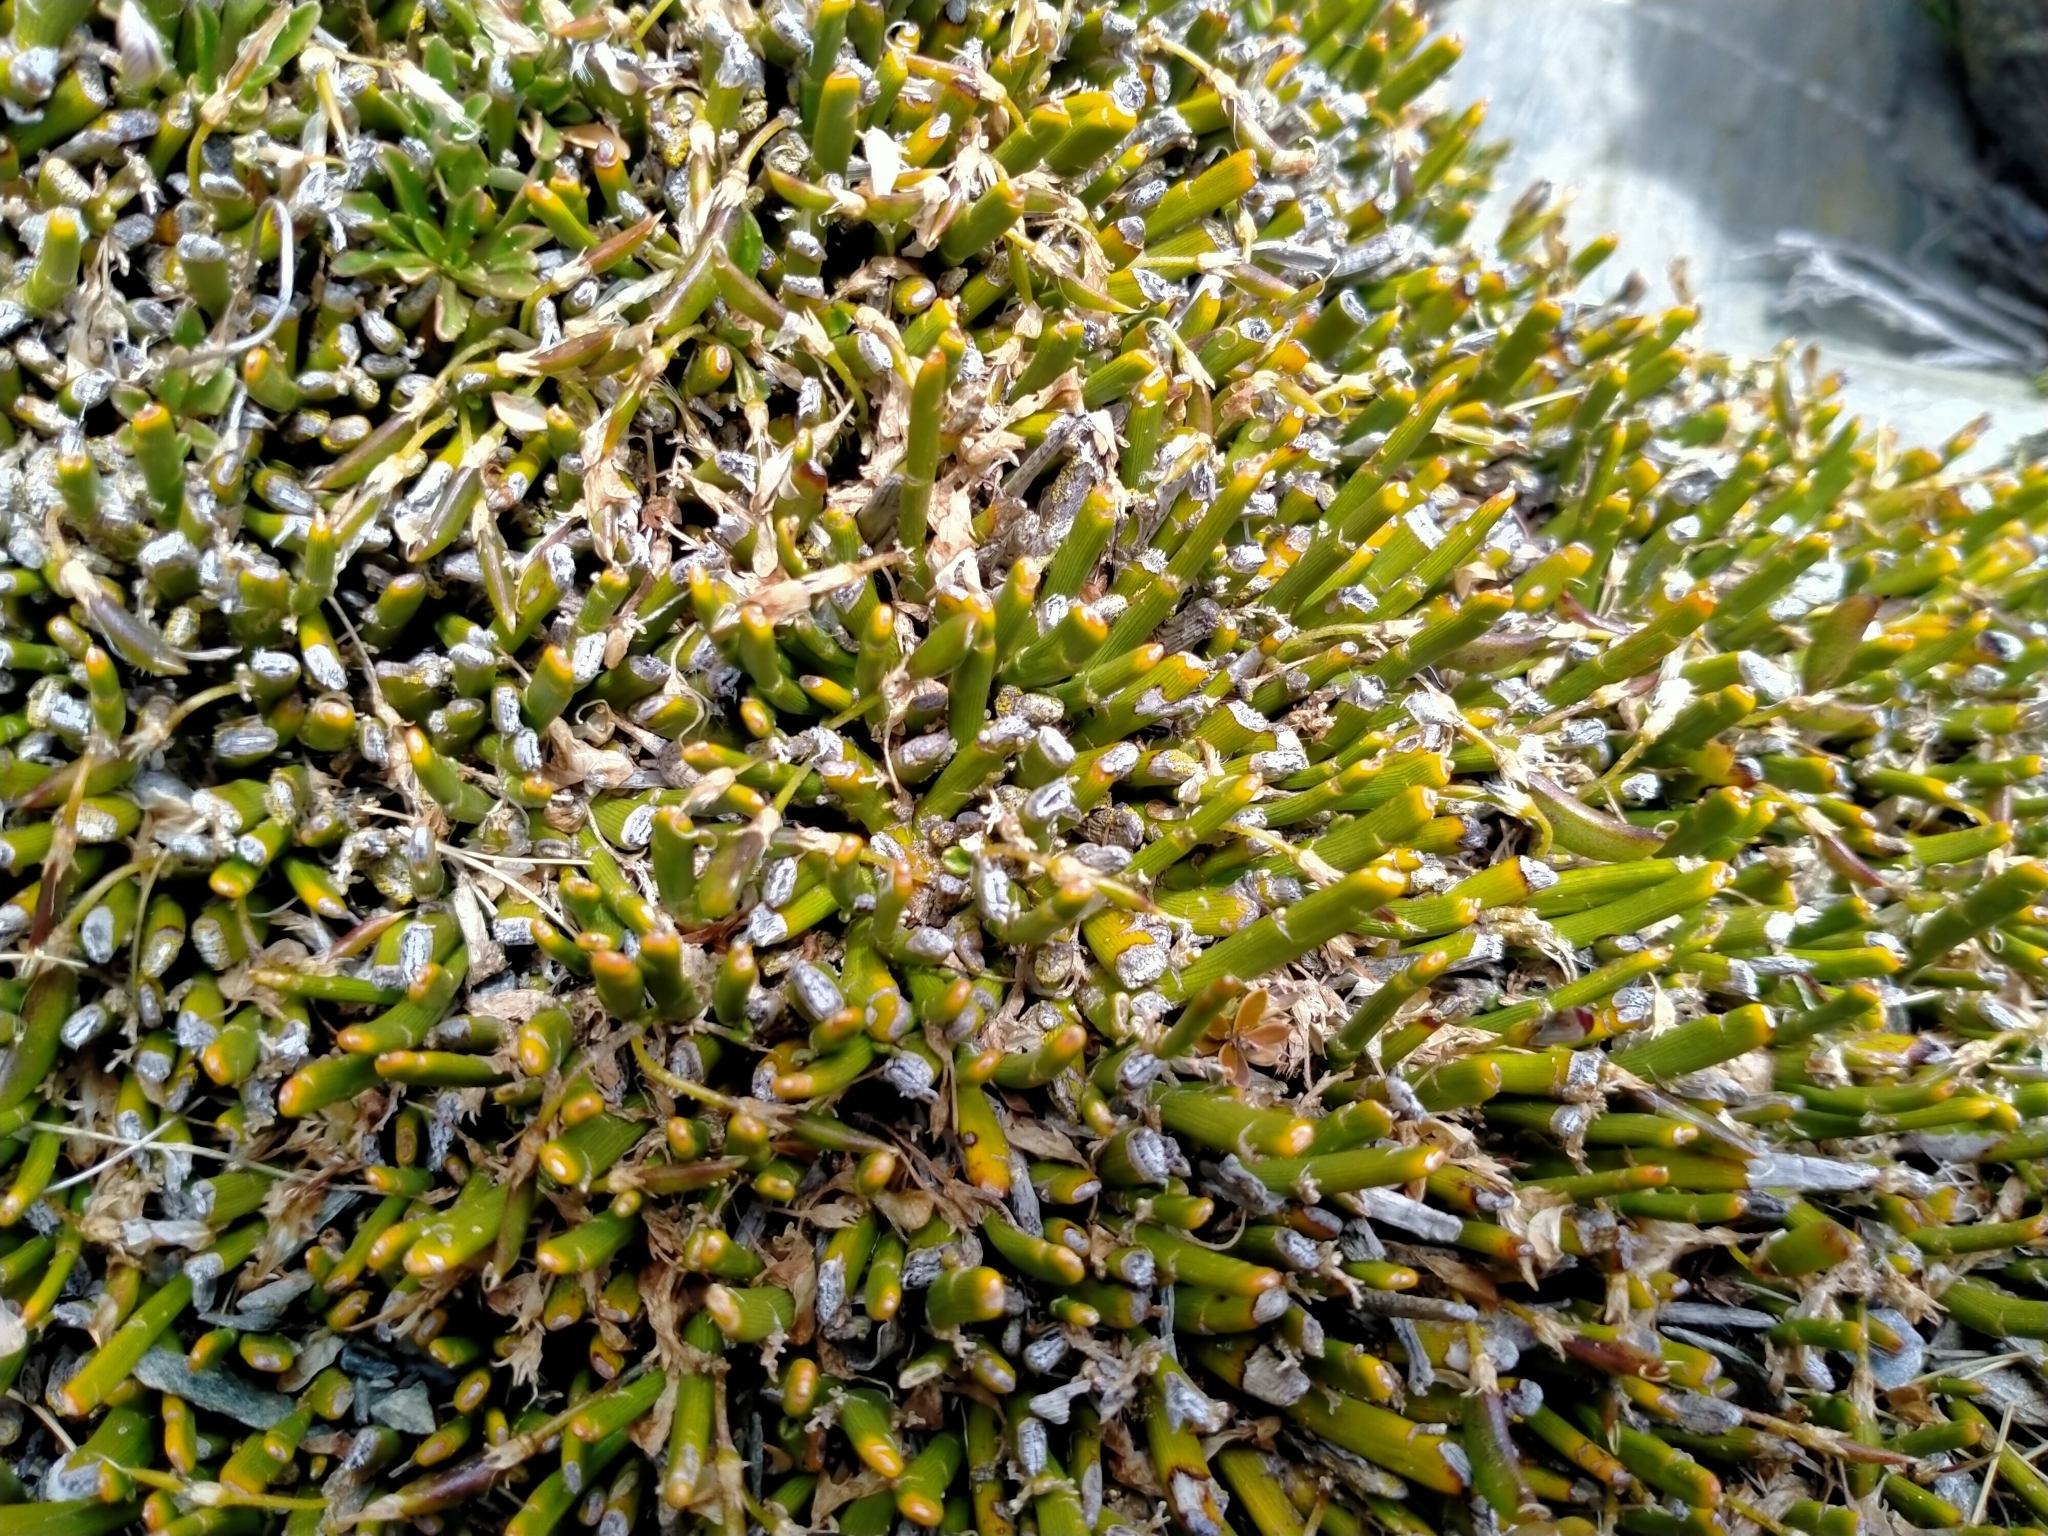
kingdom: Plantae
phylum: Tracheophyta
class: Magnoliopsida
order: Fabales
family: Fabaceae
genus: Carmichaelia
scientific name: Carmichaelia vexillata
